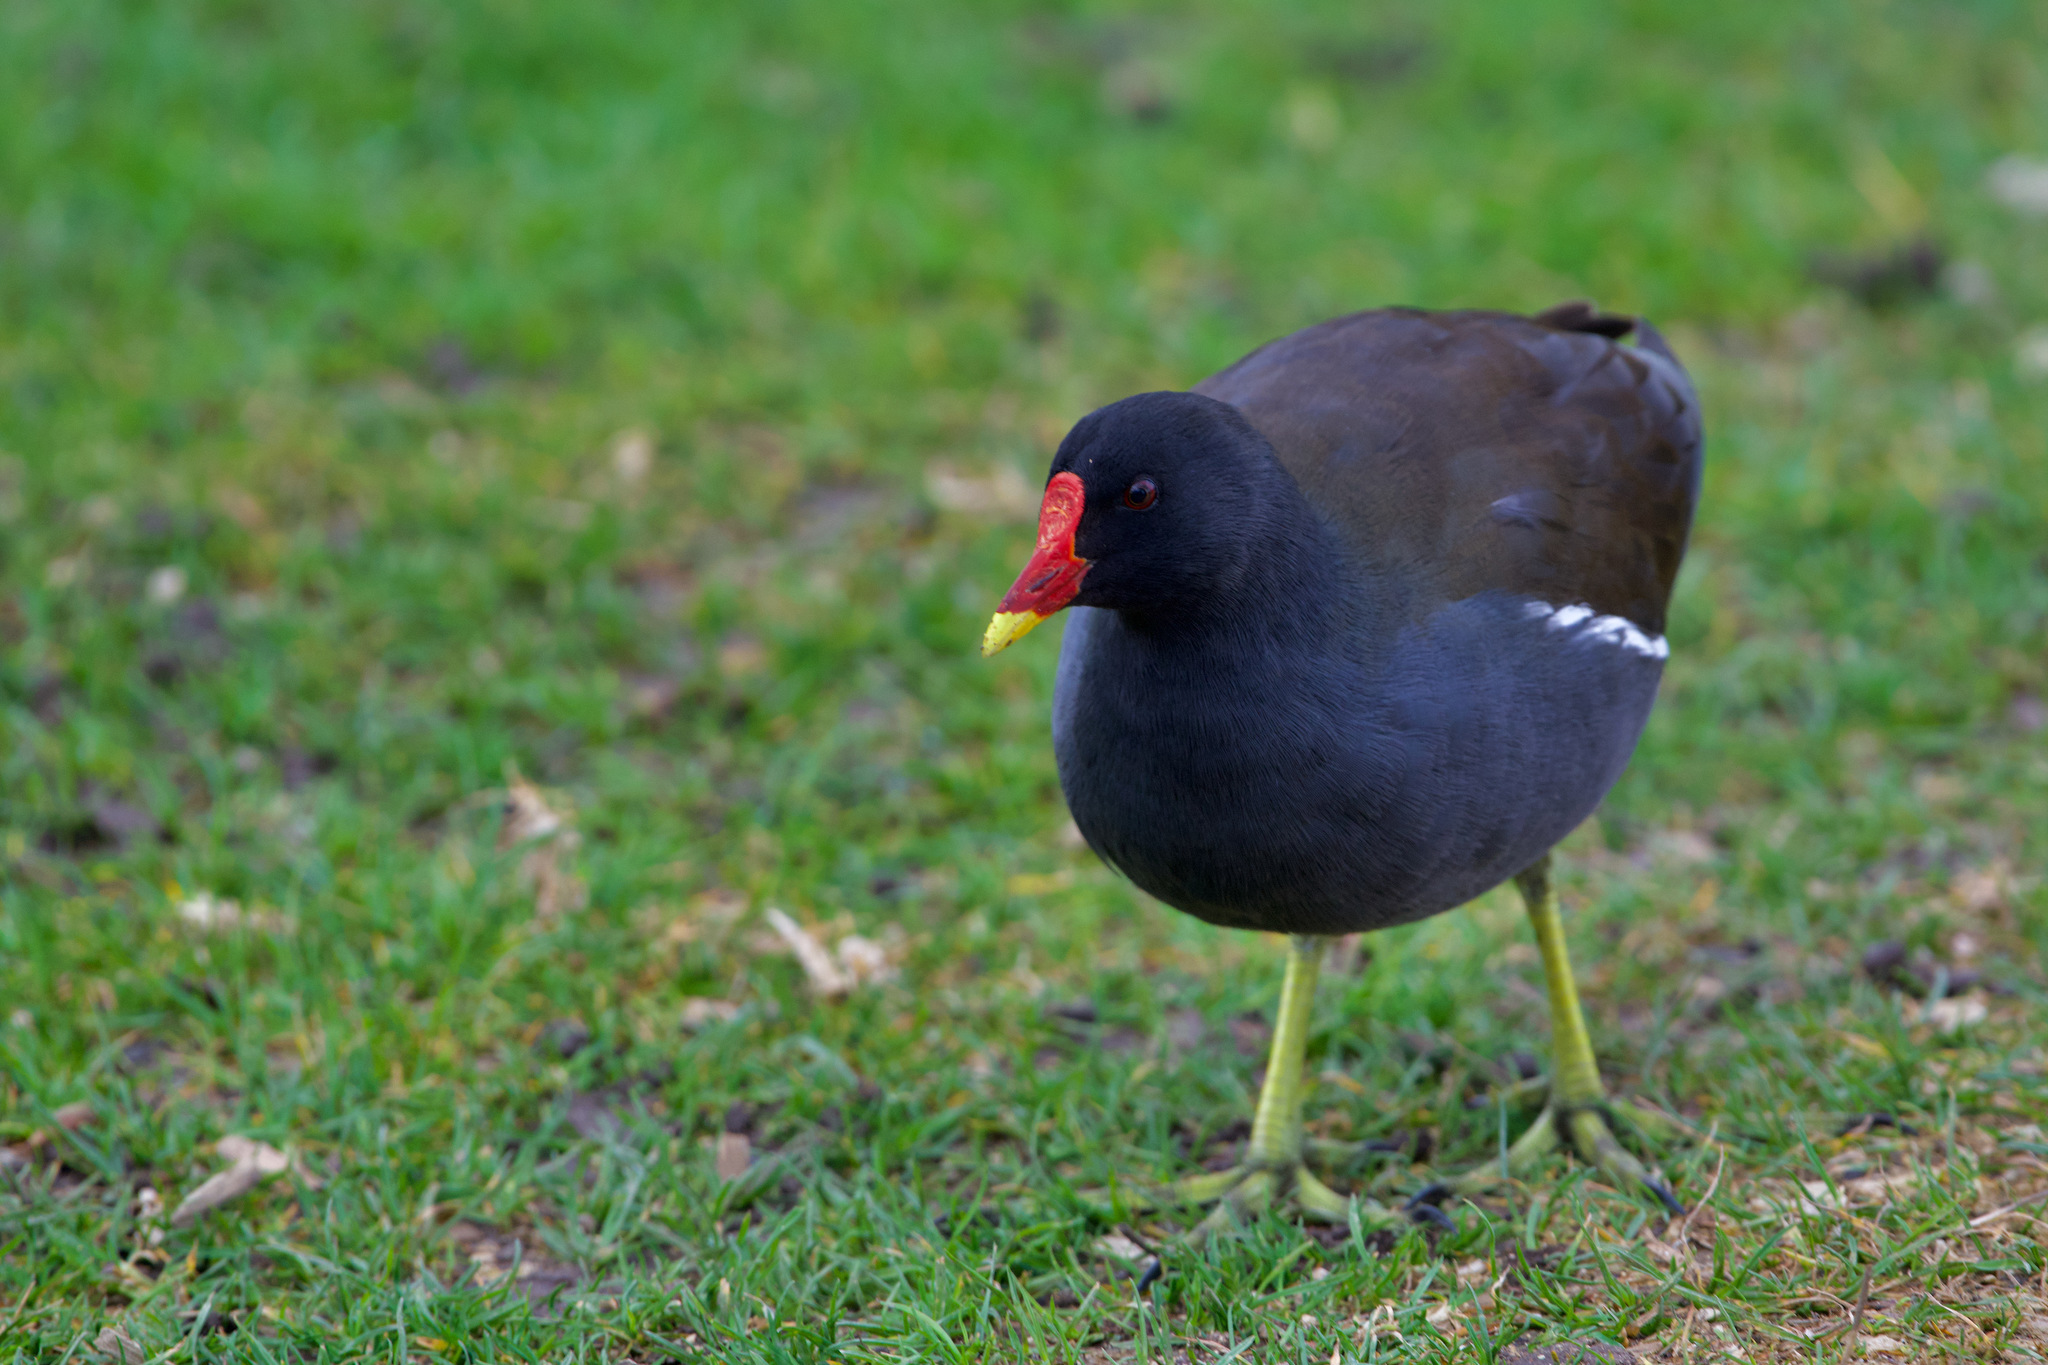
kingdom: Animalia
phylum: Chordata
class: Aves
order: Gruiformes
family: Rallidae
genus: Gallinula
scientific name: Gallinula chloropus
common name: Common moorhen
